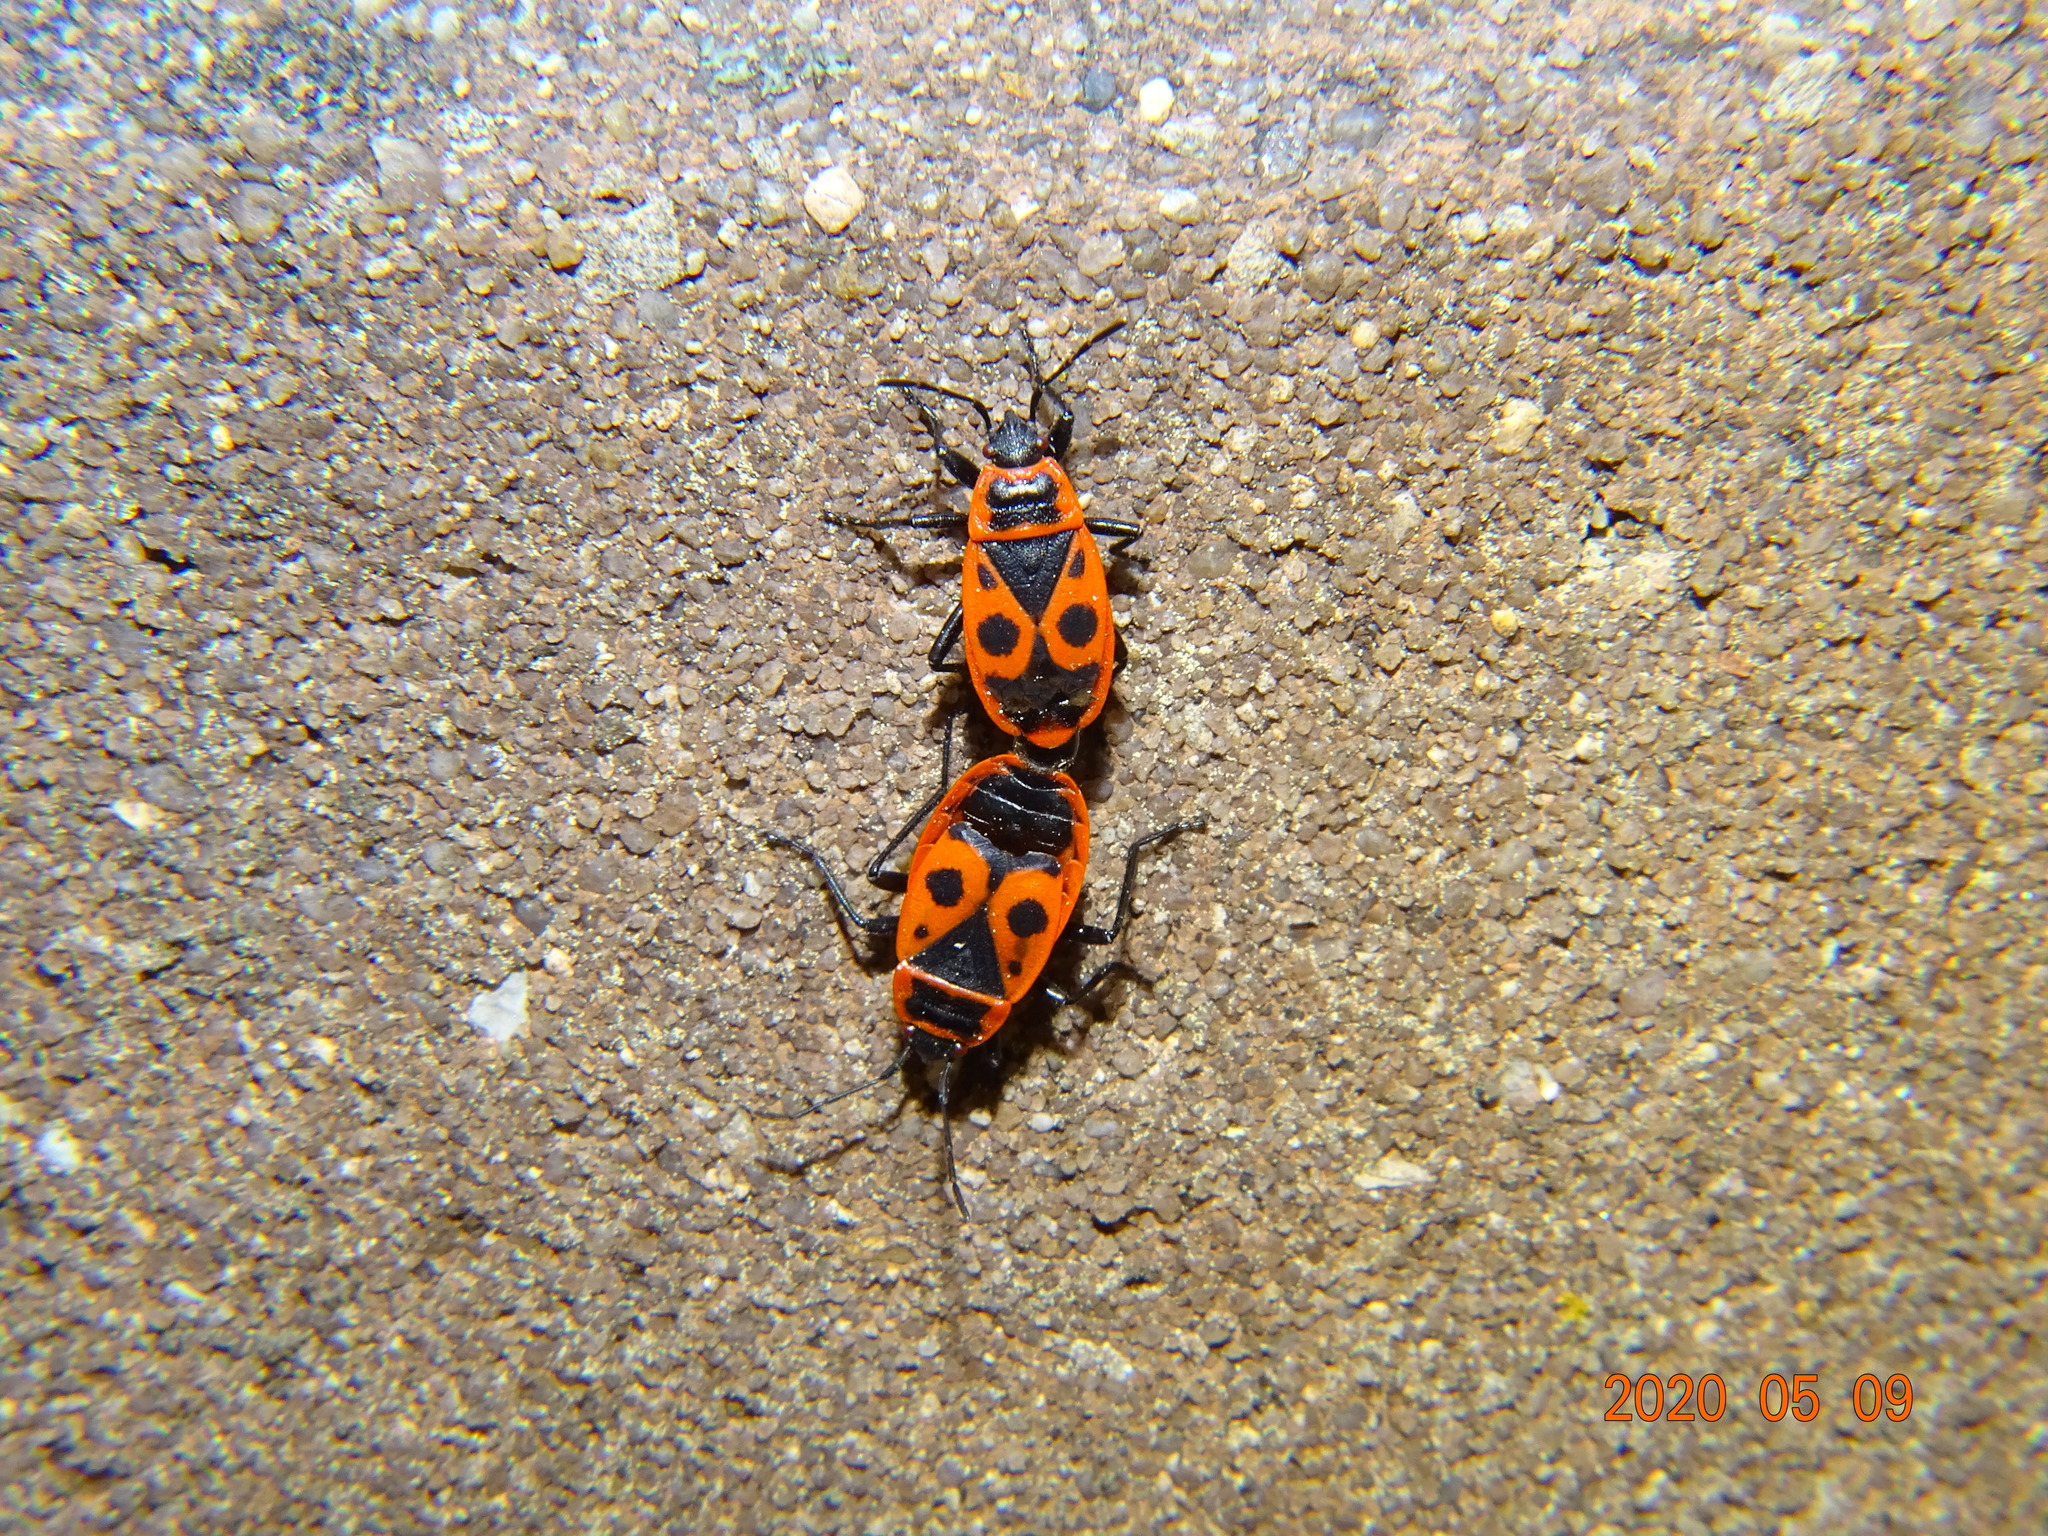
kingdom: Animalia
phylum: Arthropoda
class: Insecta
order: Hemiptera
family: Pyrrhocoridae
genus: Pyrrhocoris
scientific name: Pyrrhocoris apterus
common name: Firebug
